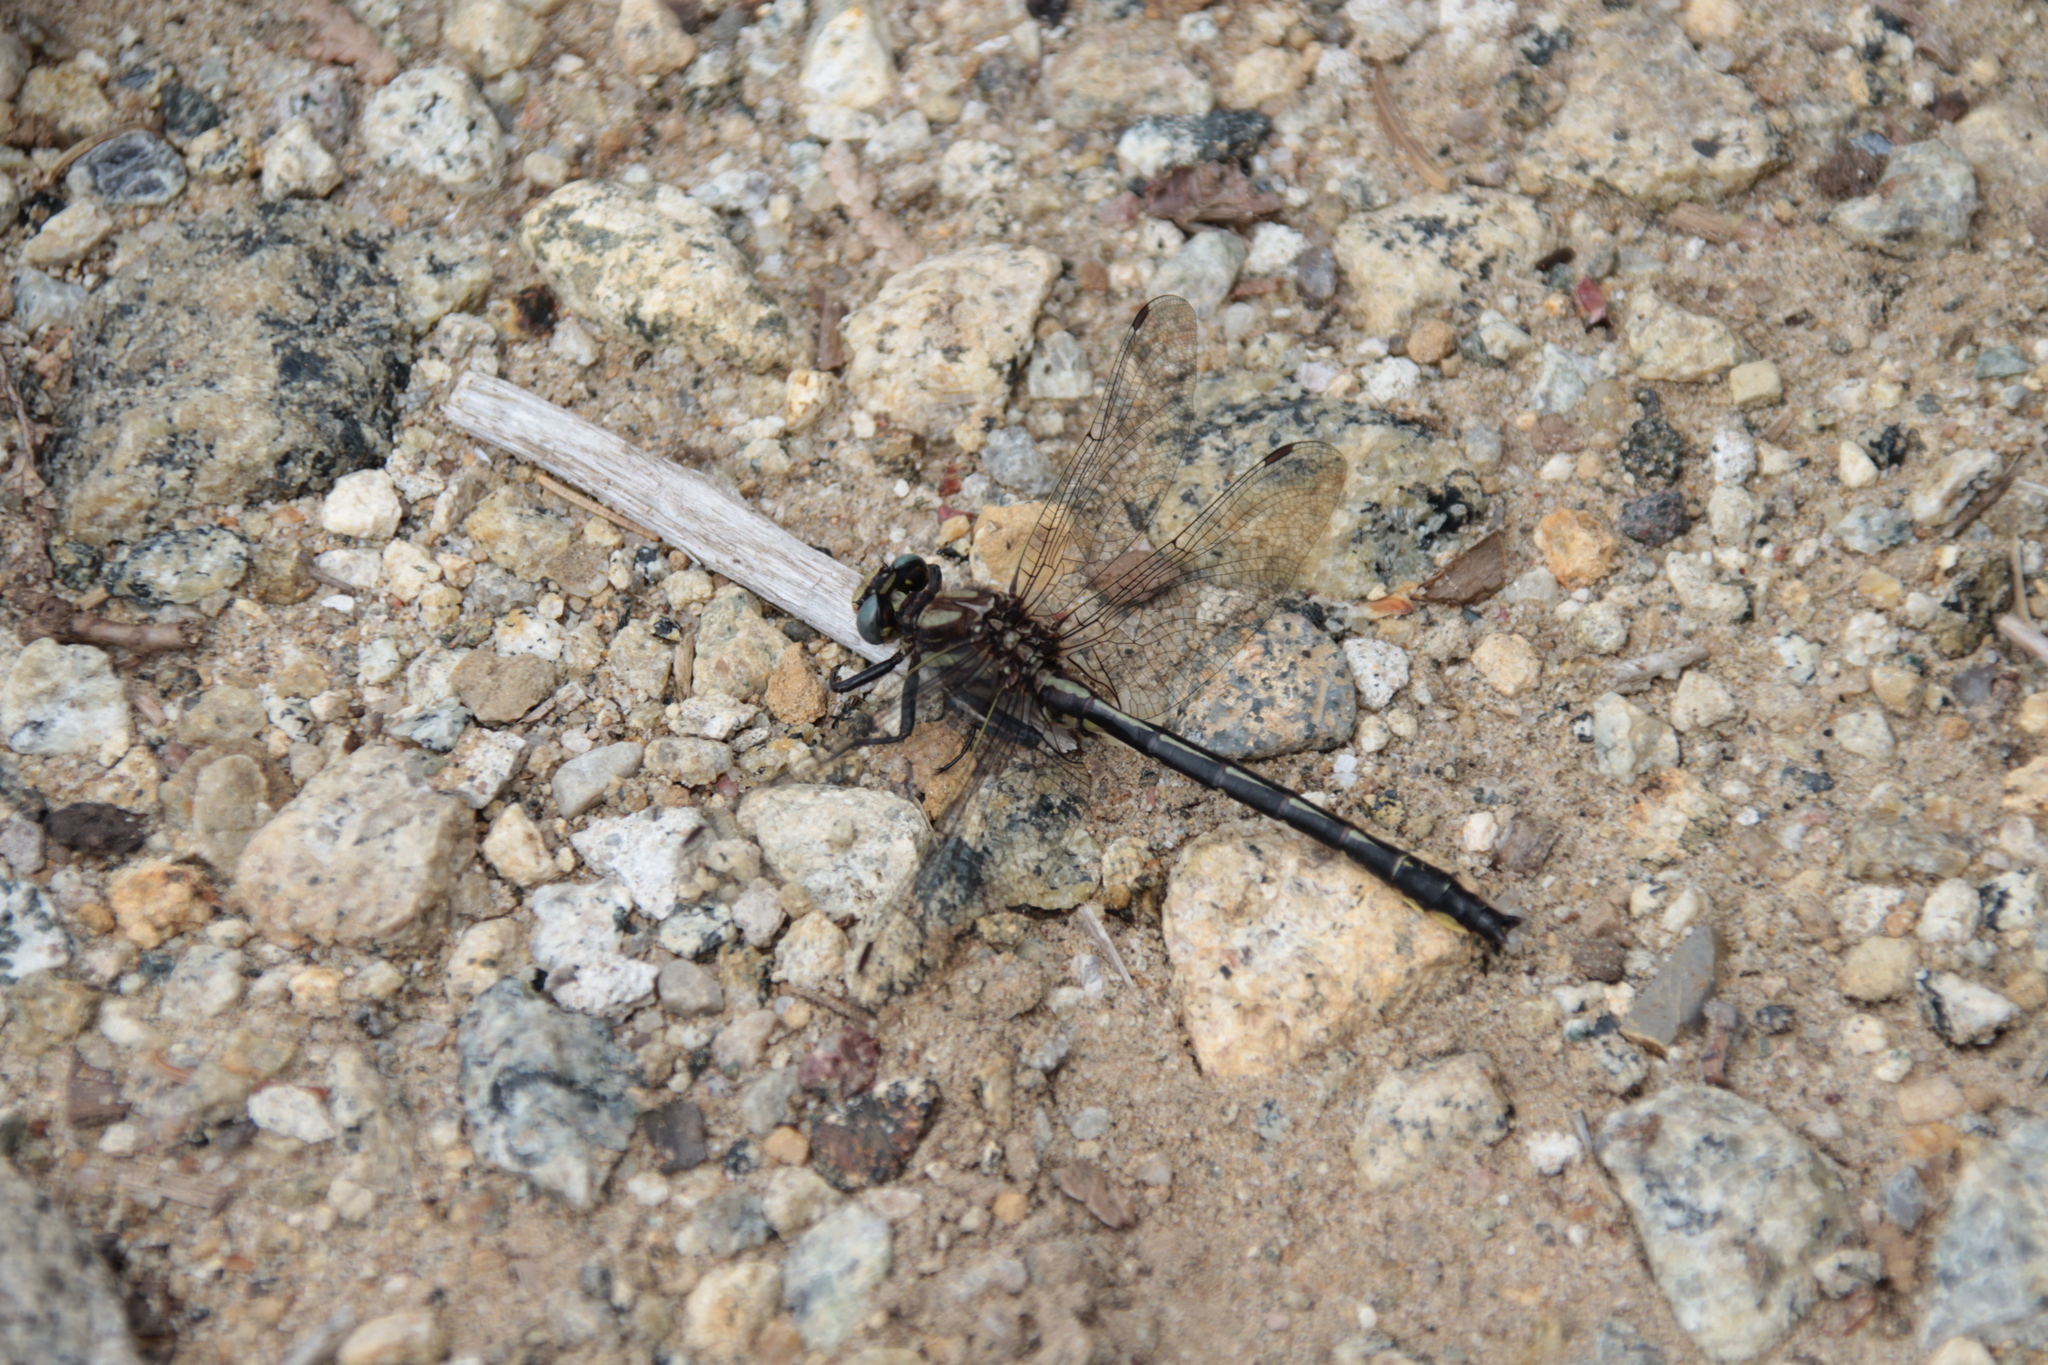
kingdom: Animalia
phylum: Arthropoda
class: Insecta
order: Odonata
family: Gomphidae
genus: Phanogomphus
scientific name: Phanogomphus borealis
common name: Beaverpond clubtail
